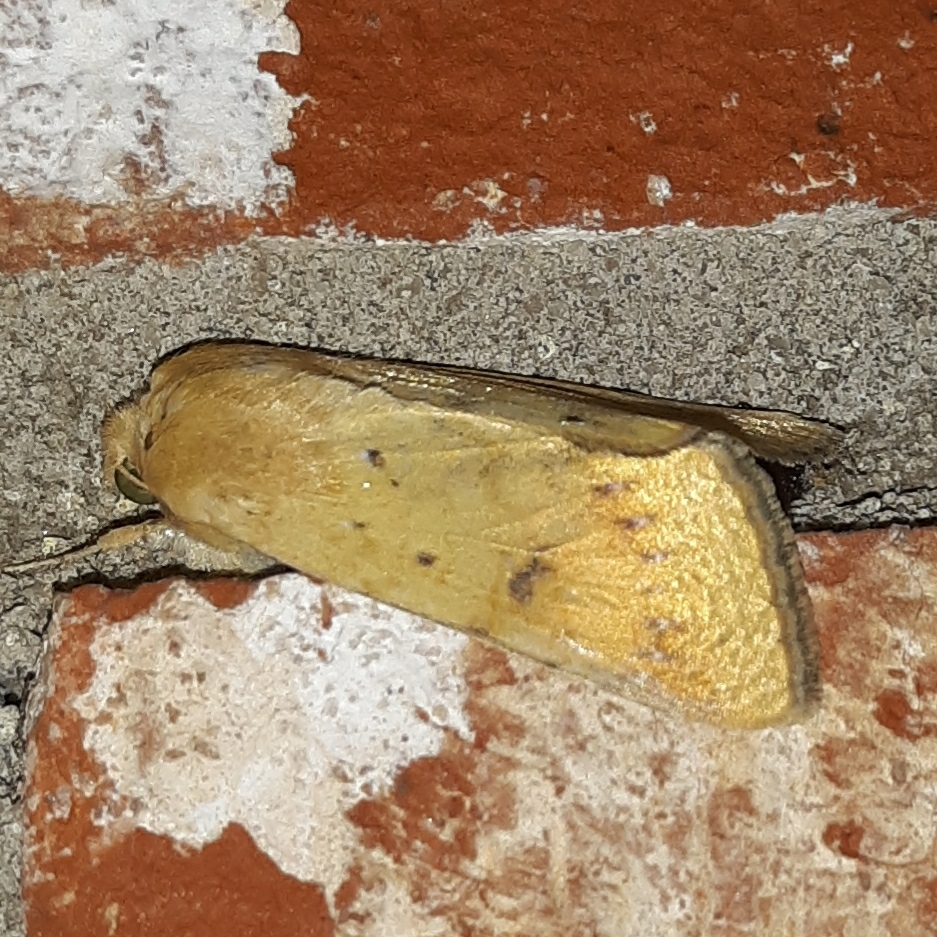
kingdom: Animalia
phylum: Arthropoda
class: Insecta
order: Lepidoptera
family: Noctuidae
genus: Helicoverpa
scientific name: Helicoverpa zea
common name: Bollworm
